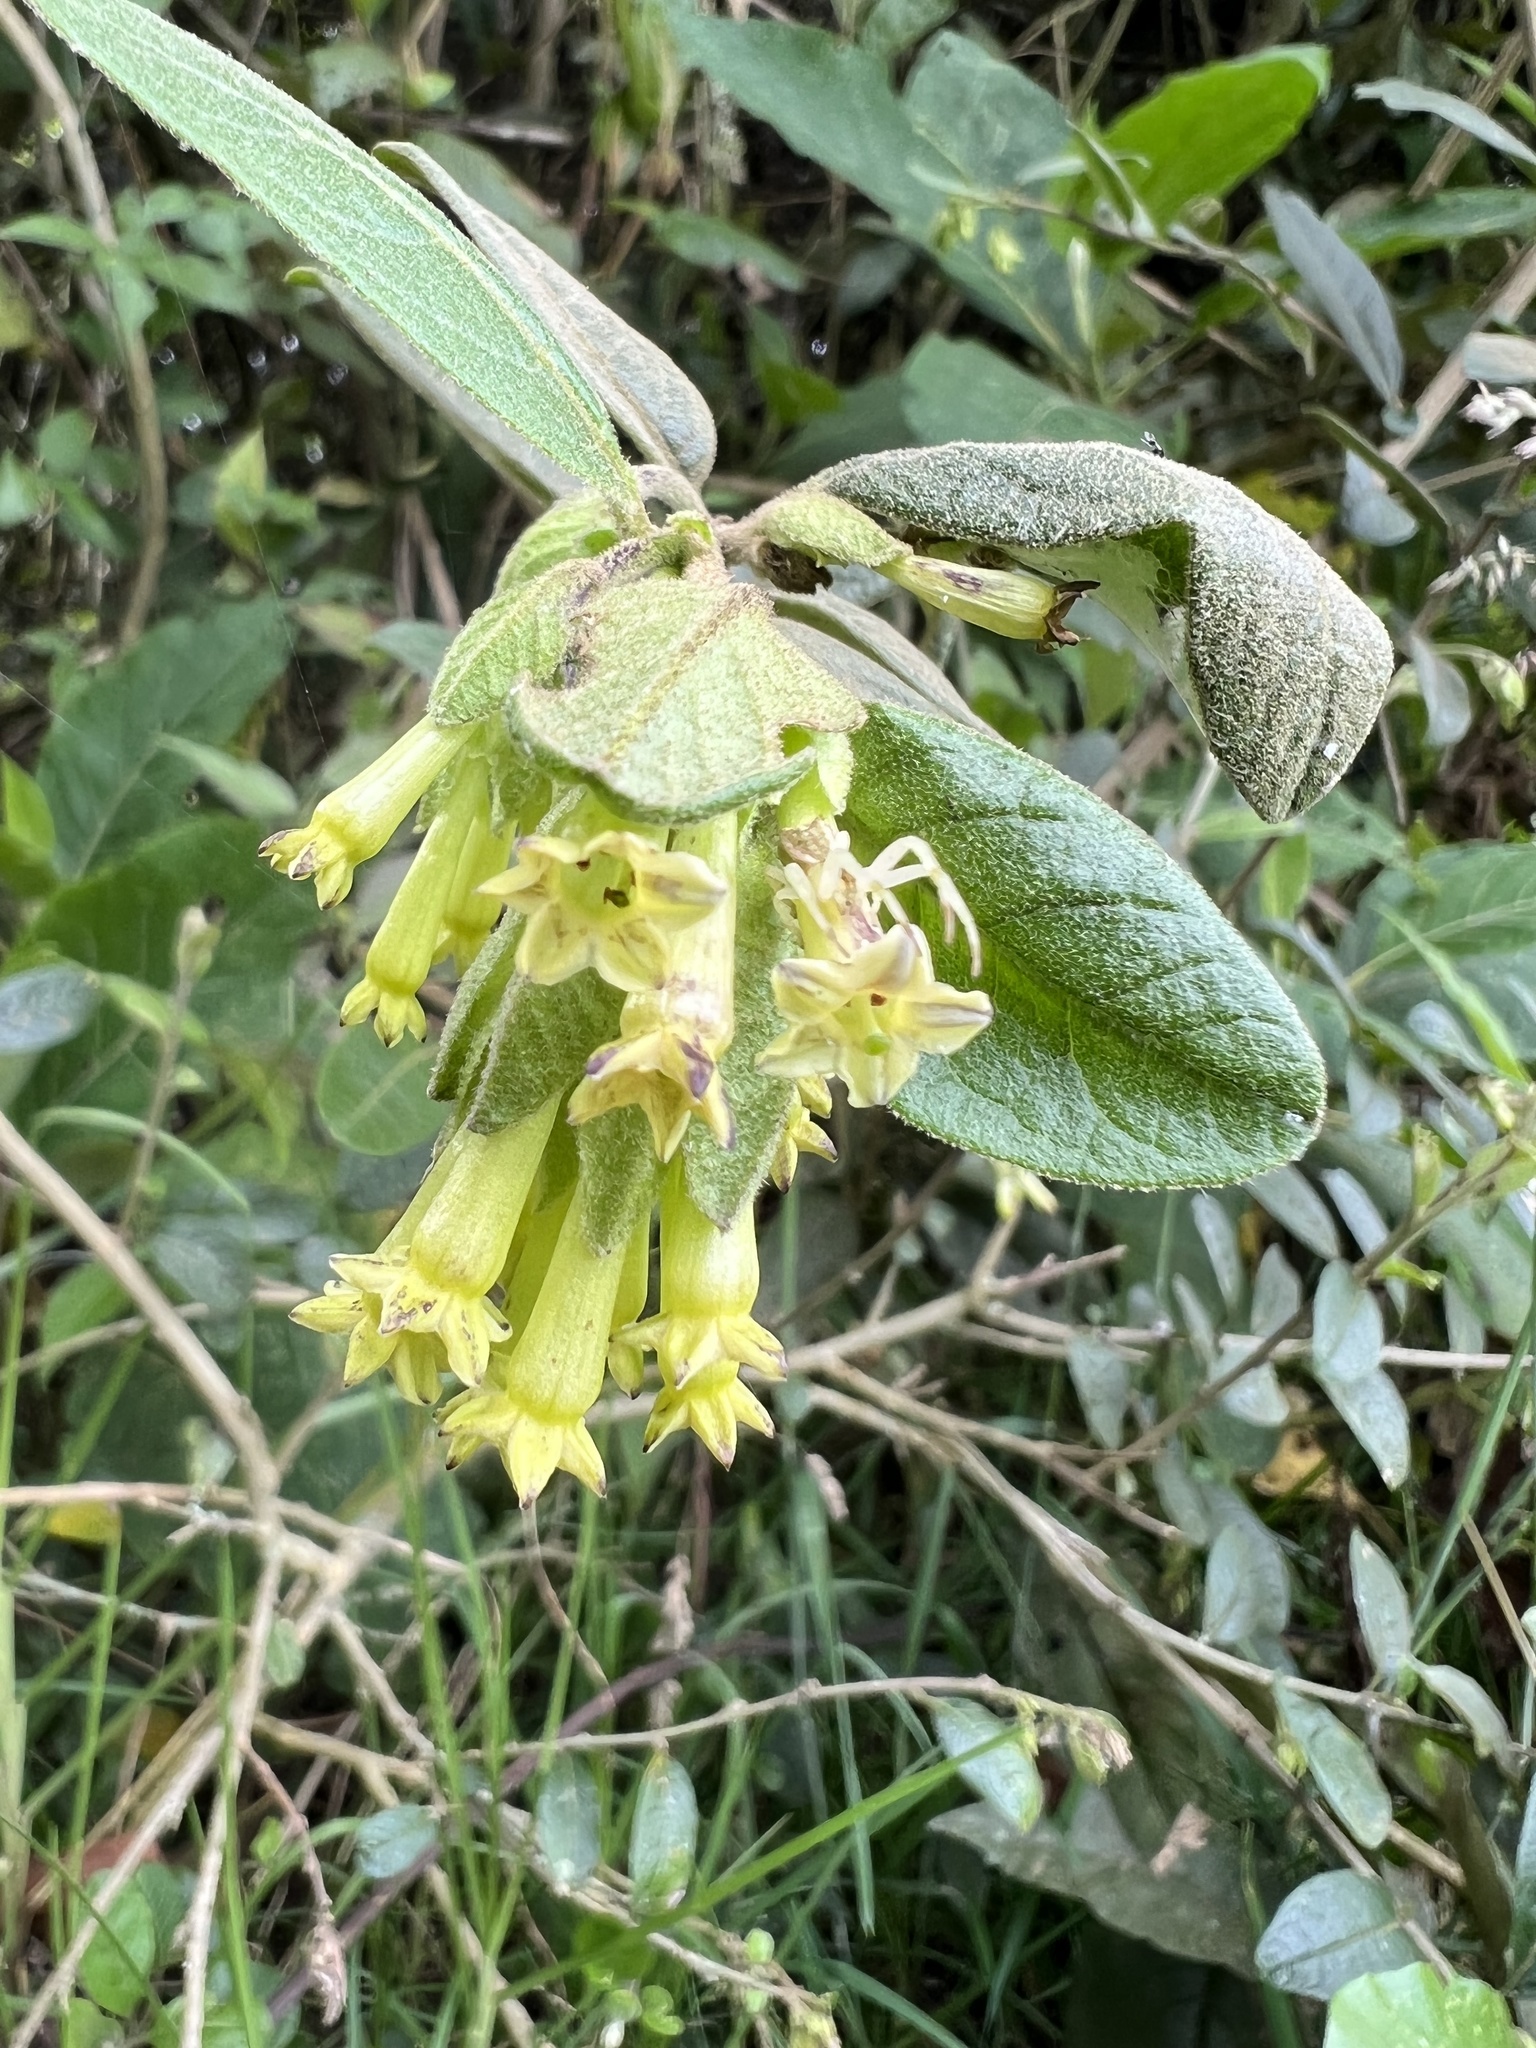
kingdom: Plantae
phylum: Tracheophyta
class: Magnoliopsida
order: Solanales
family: Solanaceae
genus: Cestrum
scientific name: Cestrum tomentosum
